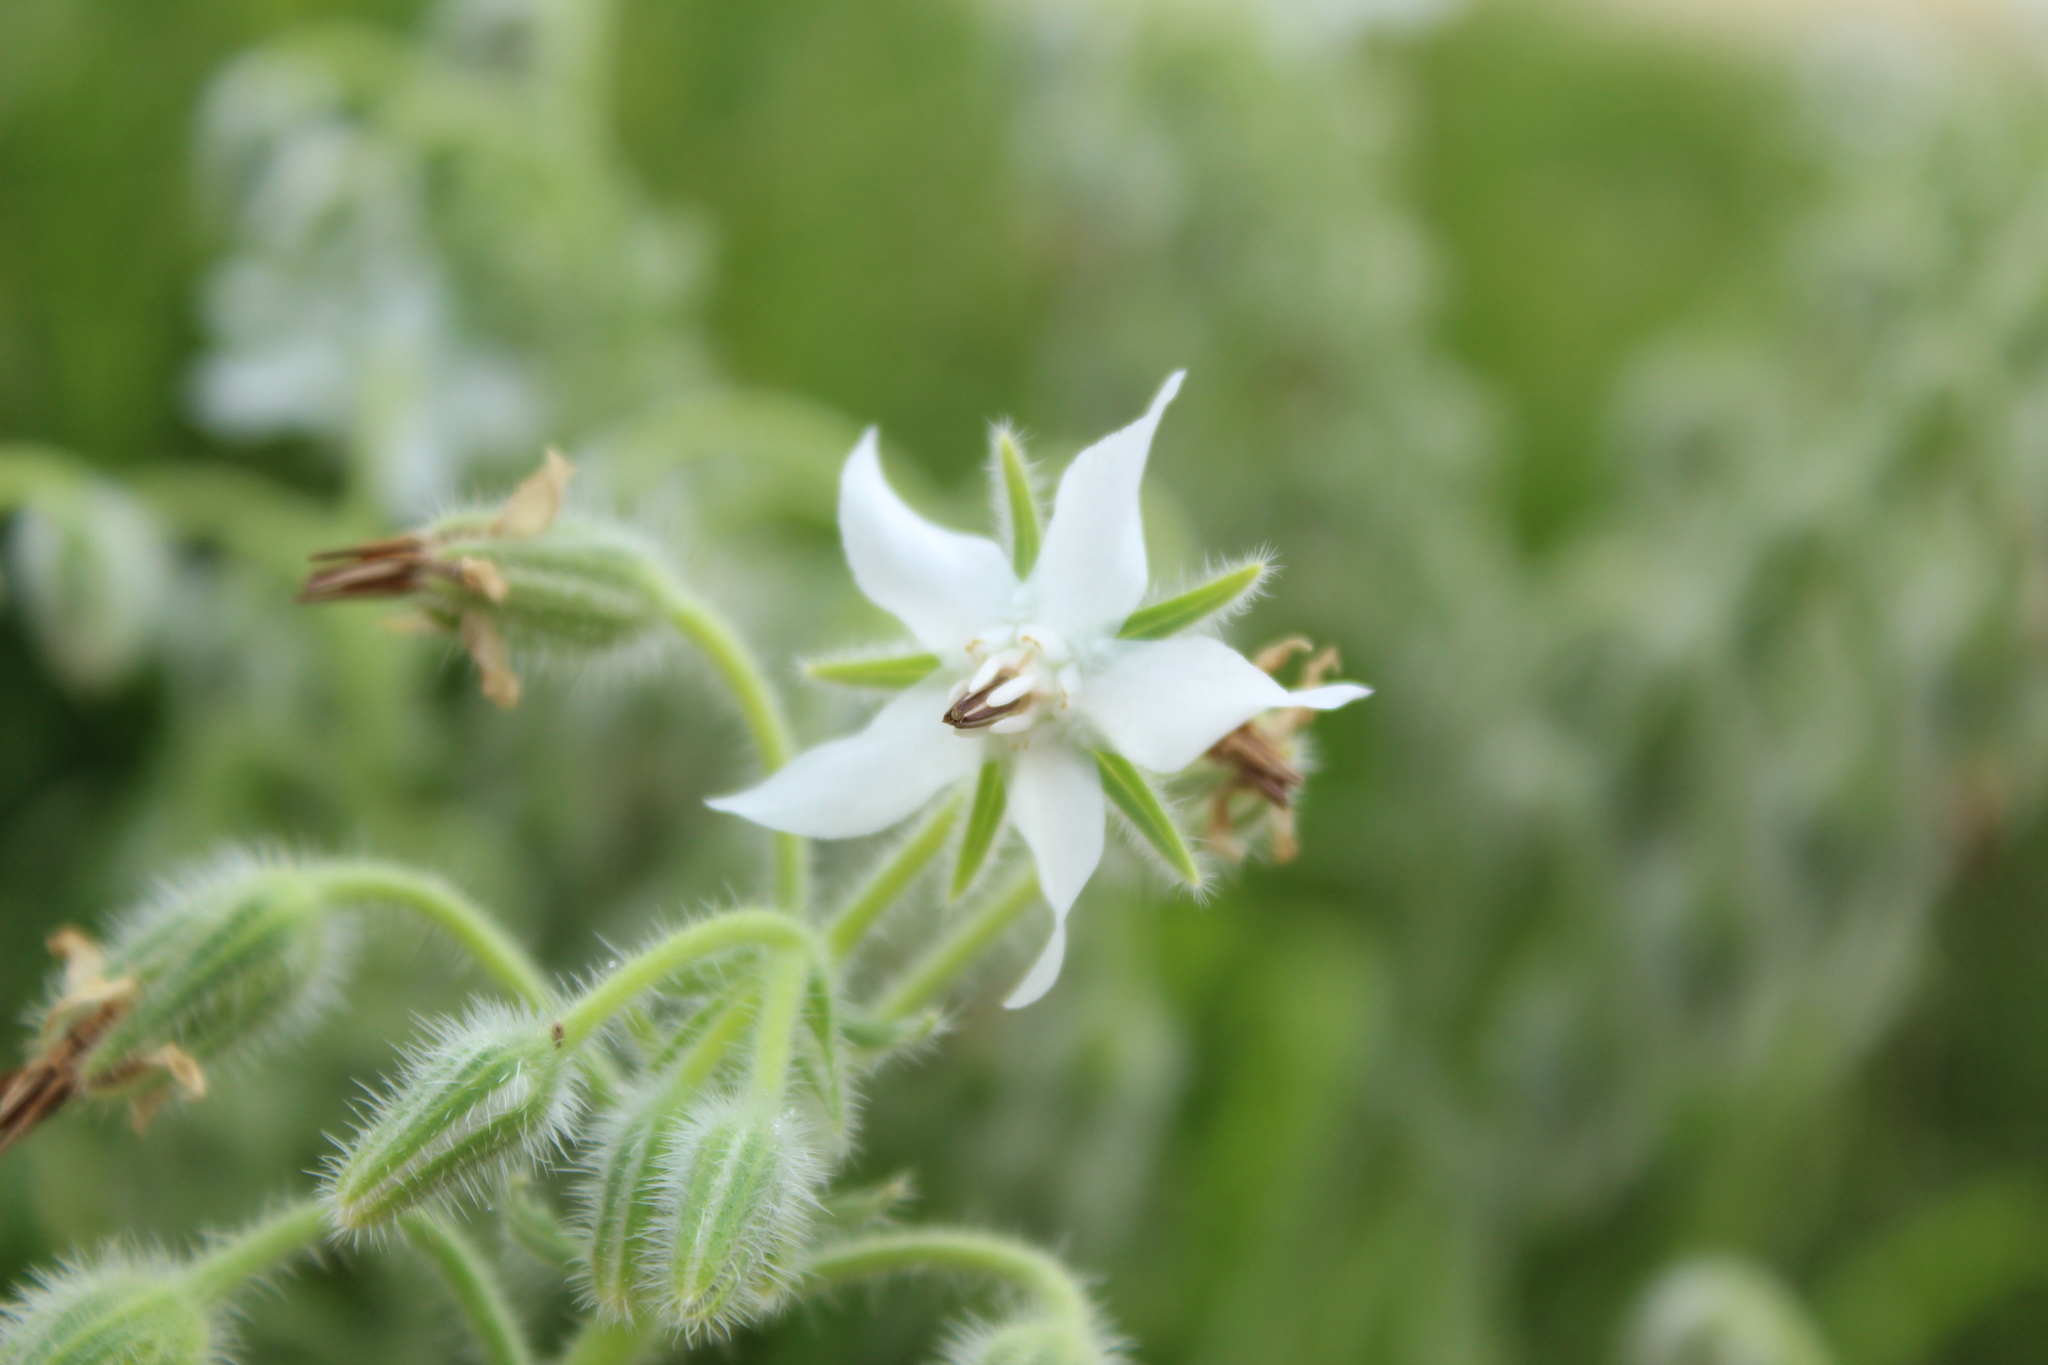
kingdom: Plantae
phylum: Tracheophyta
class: Magnoliopsida
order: Boraginales
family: Boraginaceae
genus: Borago
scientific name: Borago officinalis
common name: Borage
